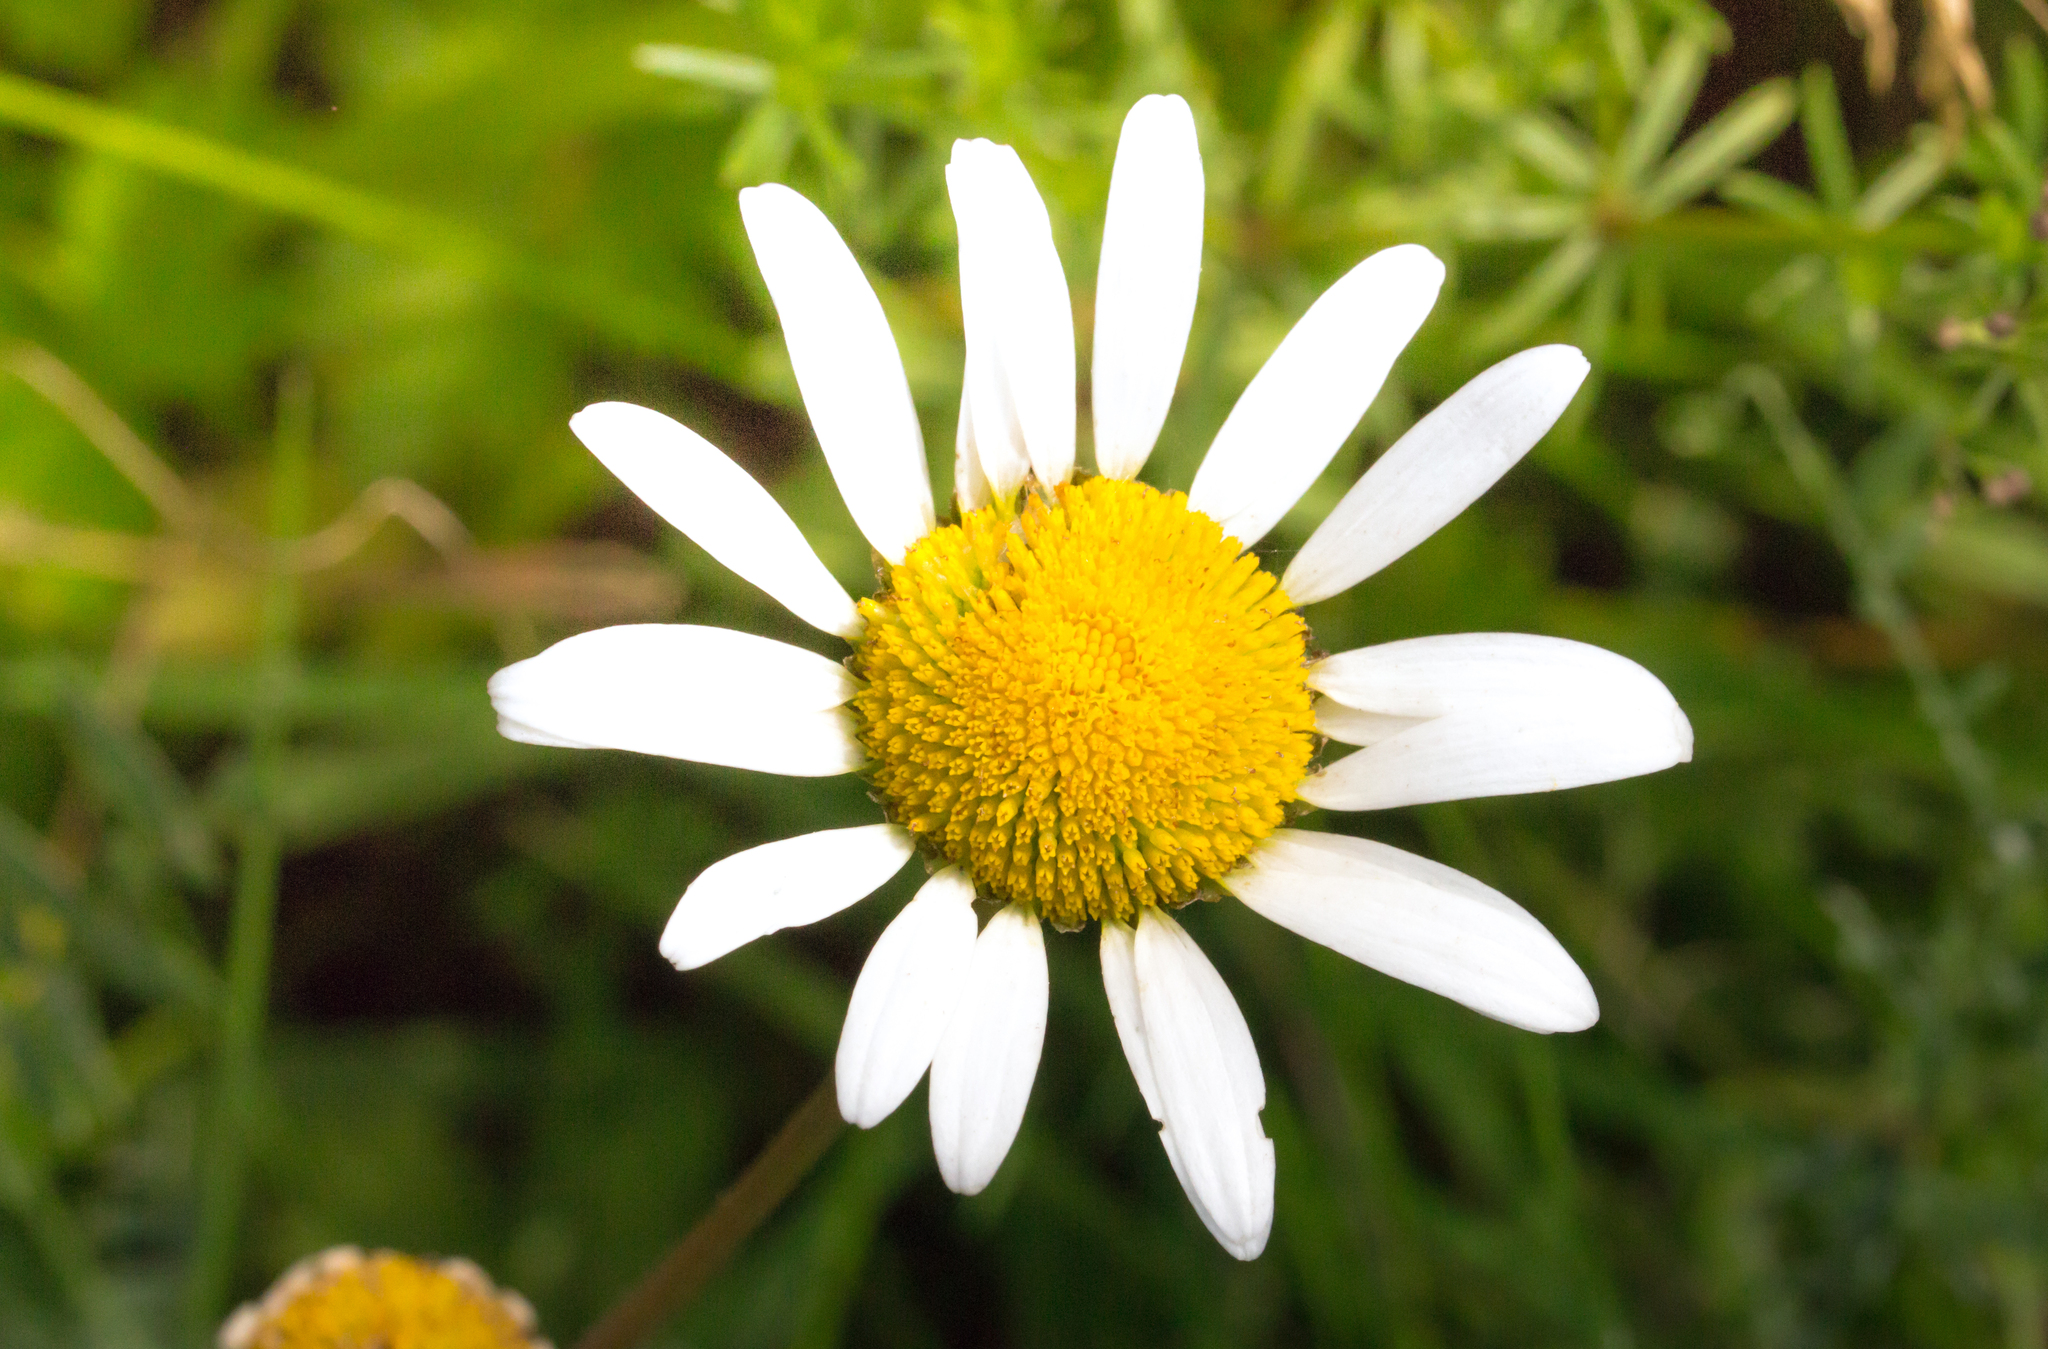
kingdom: Plantae
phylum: Tracheophyta
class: Magnoliopsida
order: Asterales
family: Asteraceae
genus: Leucanthemum
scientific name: Leucanthemum vulgare
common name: Oxeye daisy
